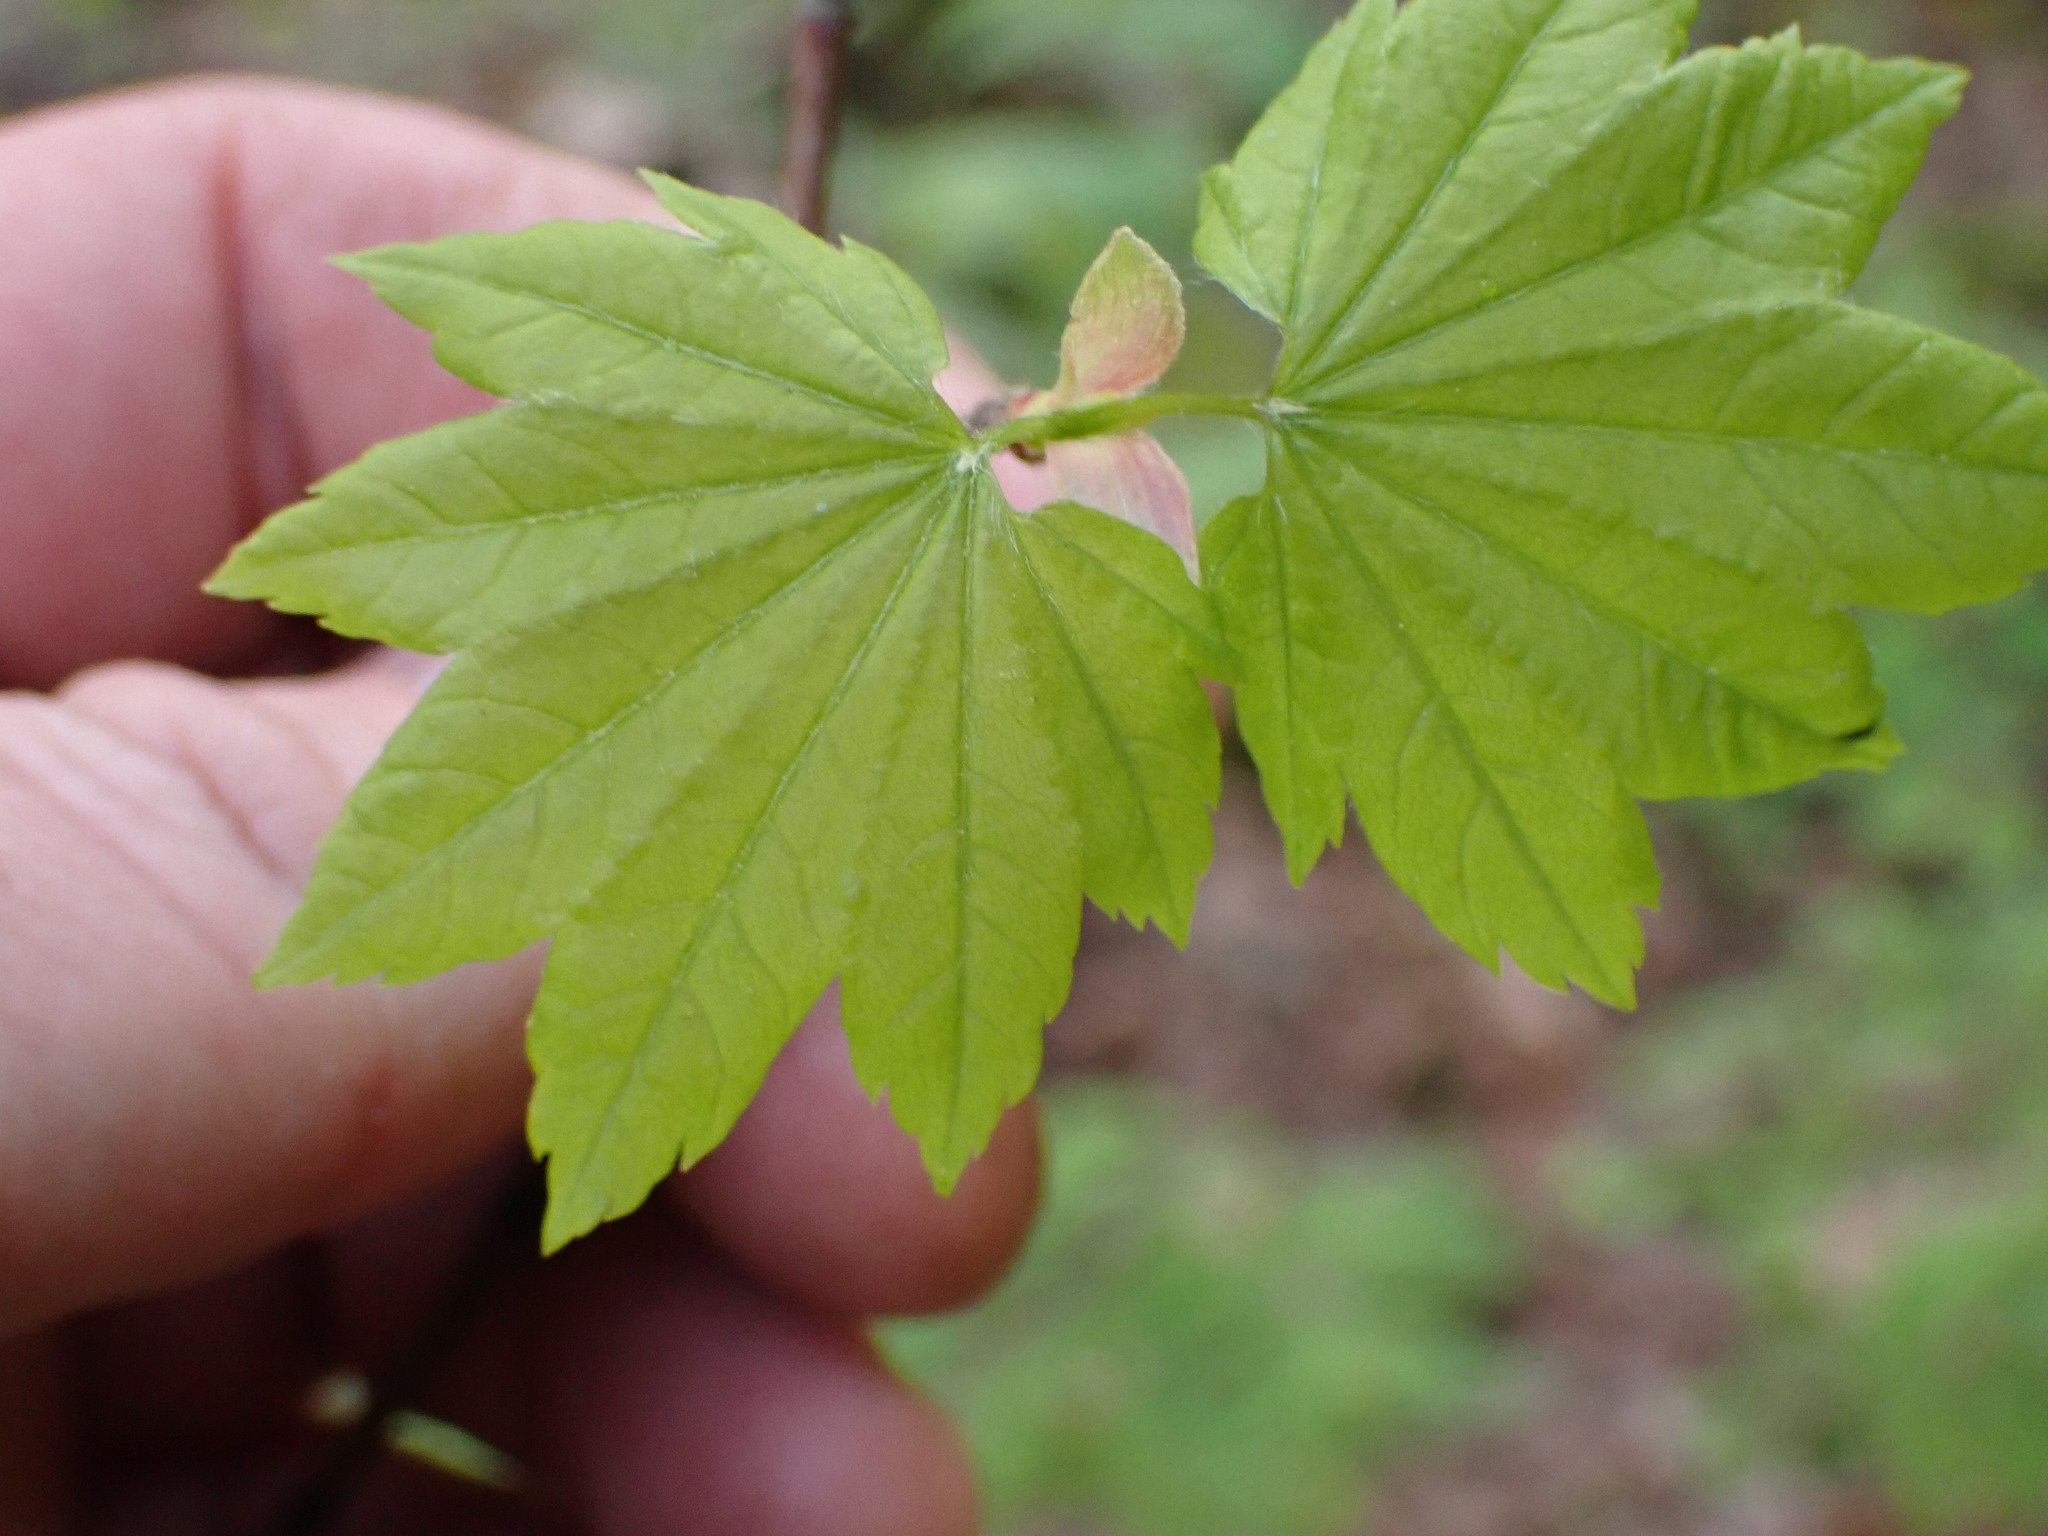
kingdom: Plantae
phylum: Tracheophyta
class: Magnoliopsida
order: Sapindales
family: Sapindaceae
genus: Acer
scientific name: Acer circinatum
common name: Vine maple
